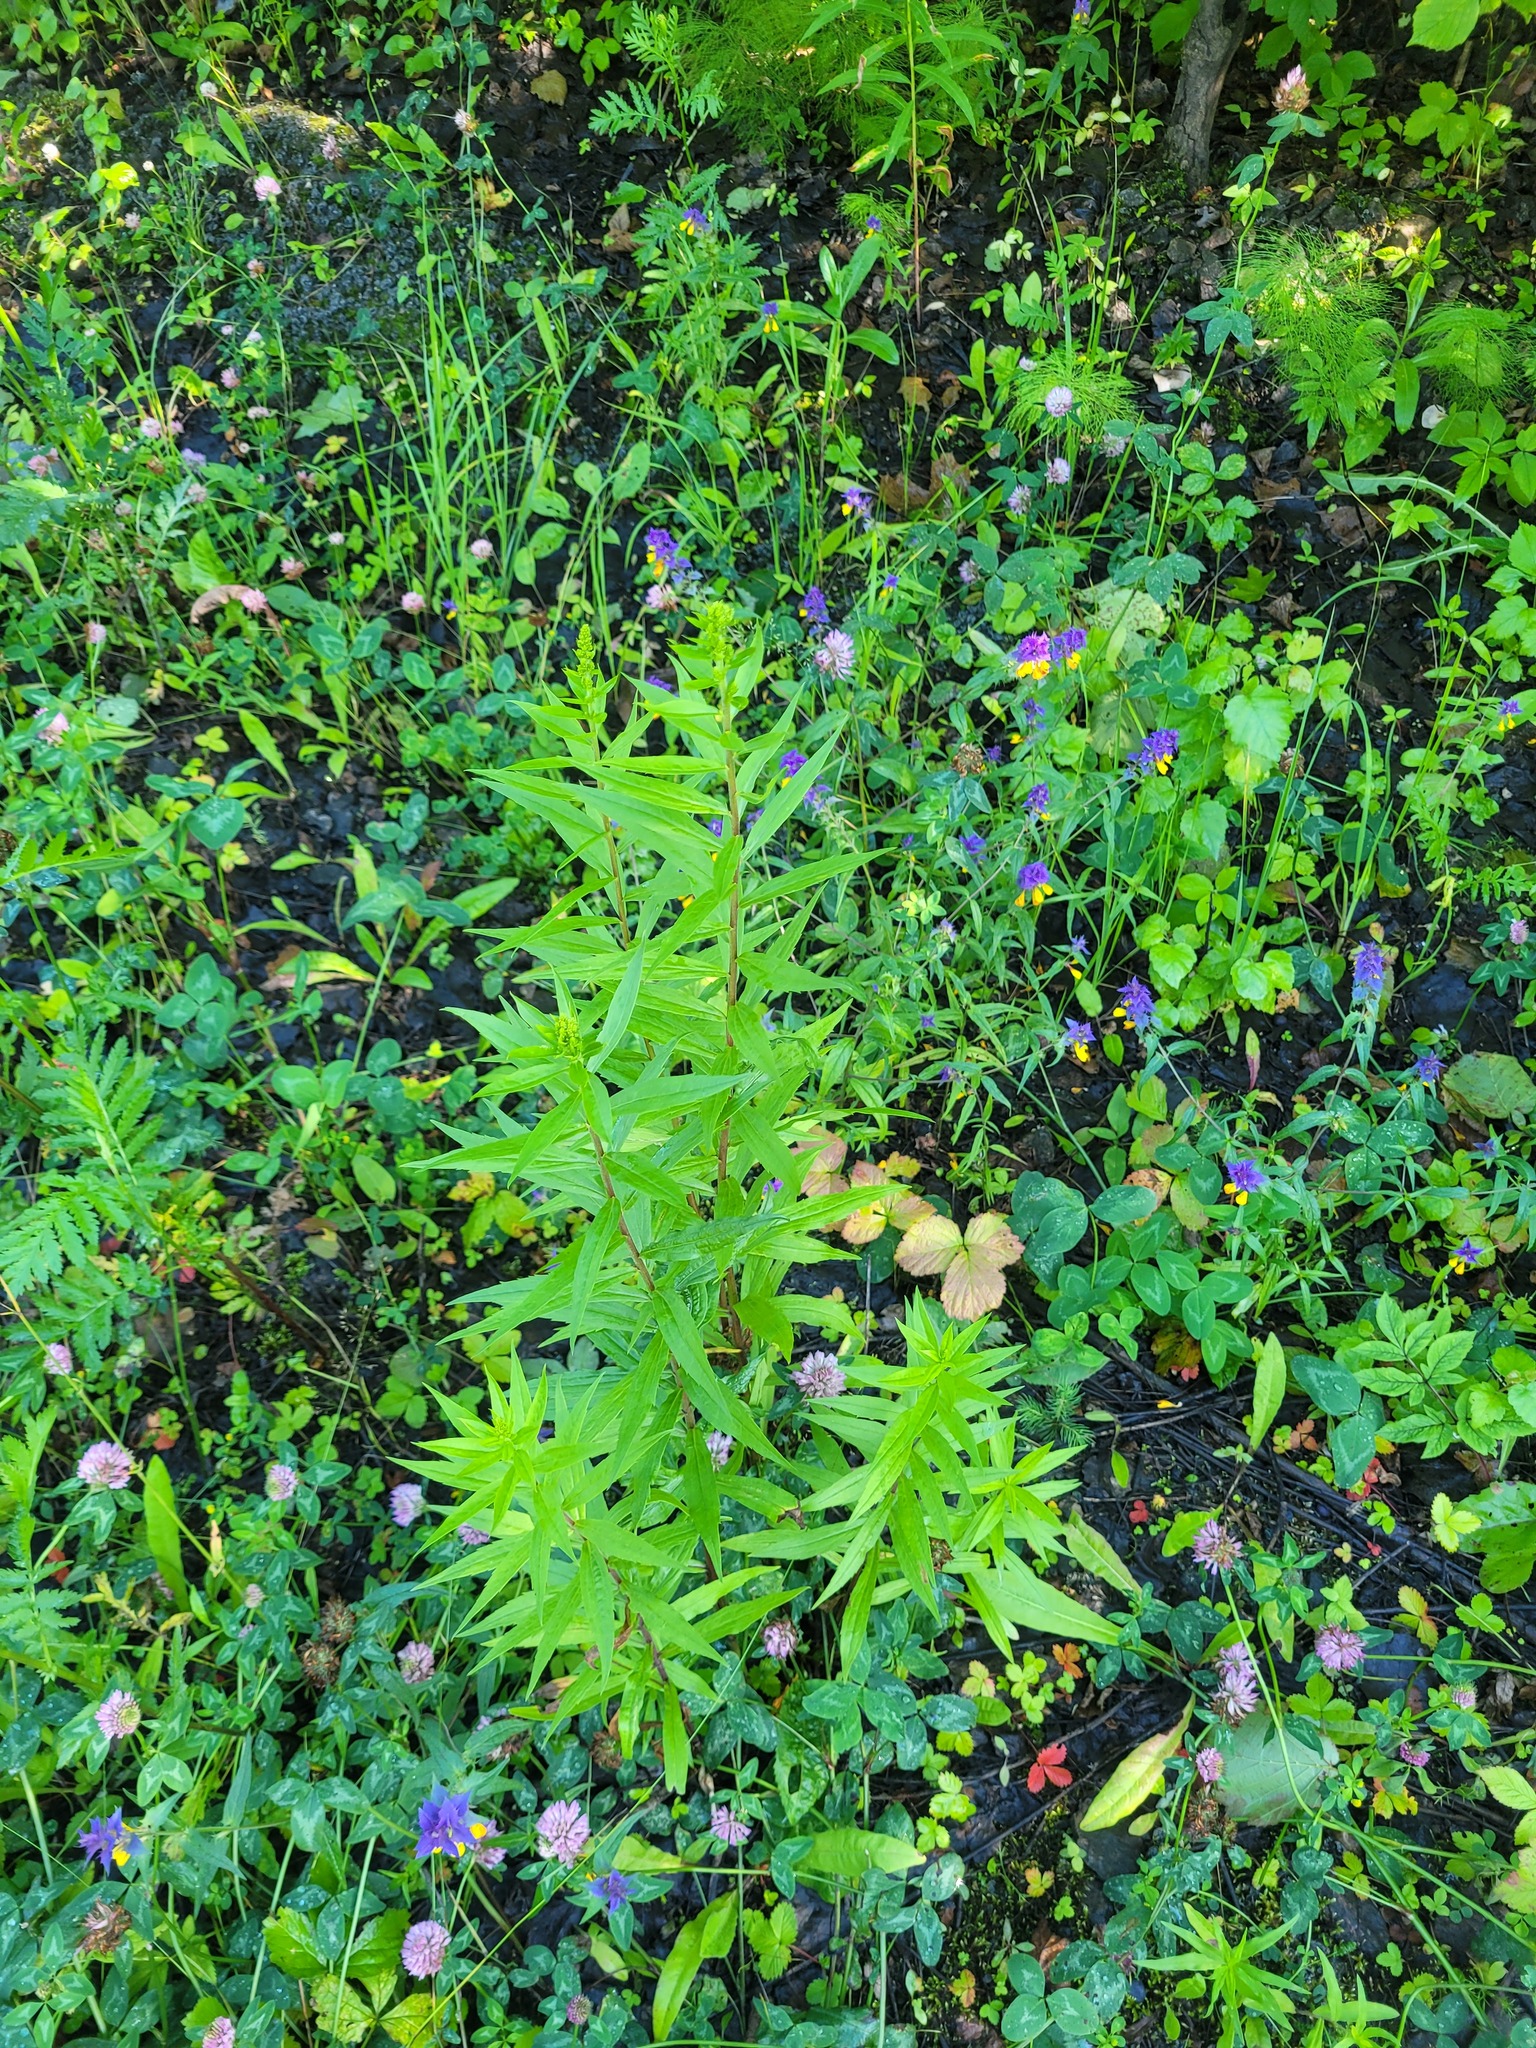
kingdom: Plantae
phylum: Tracheophyta
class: Magnoliopsida
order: Asterales
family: Asteraceae
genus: Solidago
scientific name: Solidago canadensis
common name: Canada goldenrod
